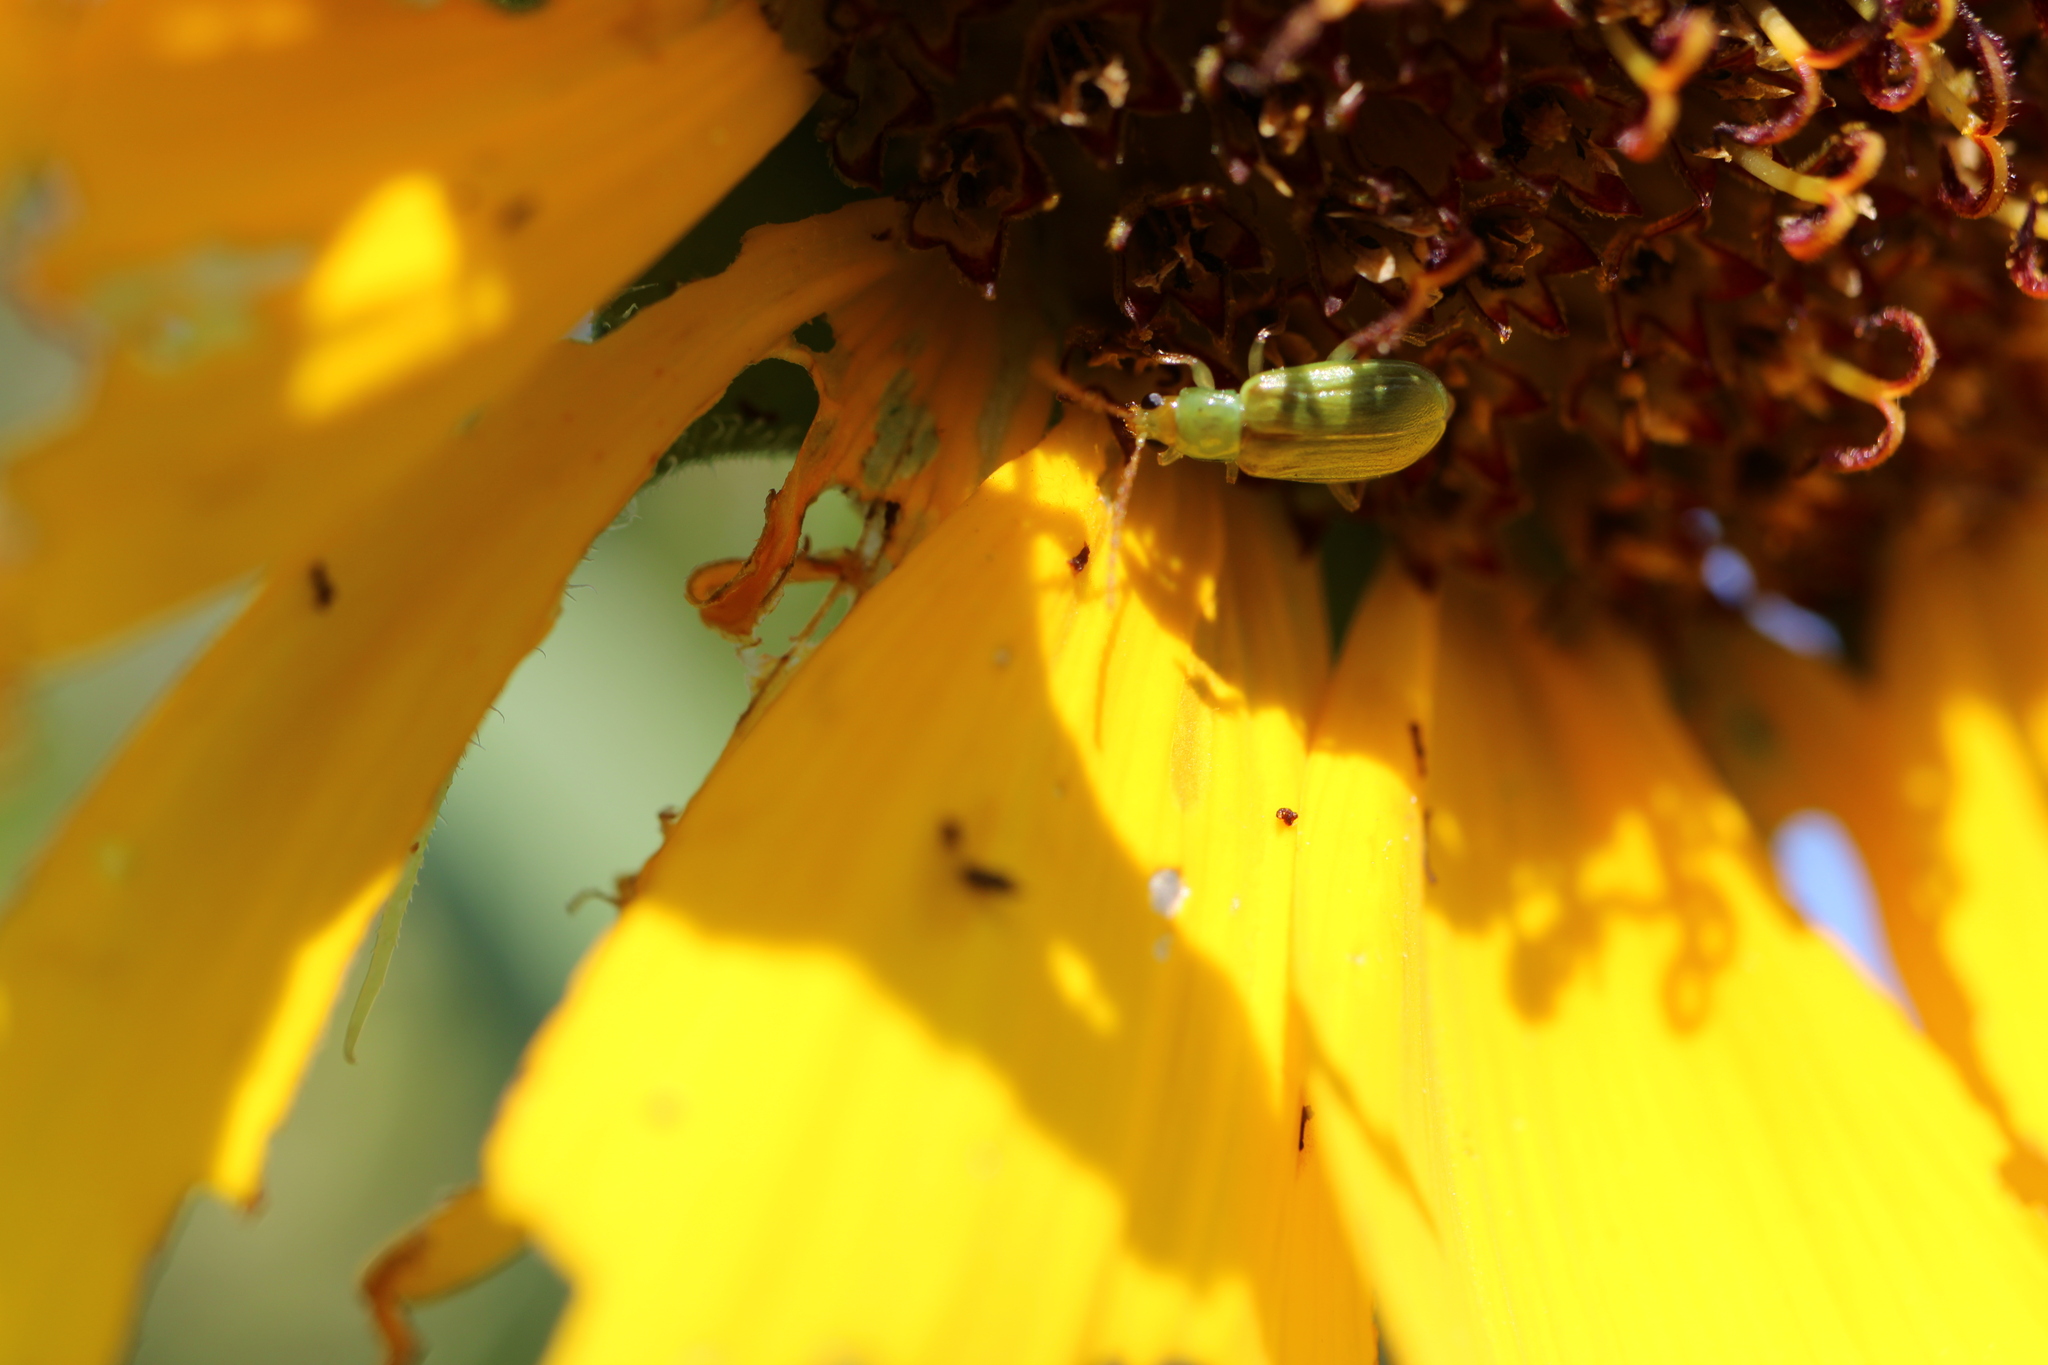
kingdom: Animalia
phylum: Arthropoda
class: Insecta
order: Coleoptera
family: Chrysomelidae
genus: Diabrotica
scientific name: Diabrotica barberi
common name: Northern corn rootworm
